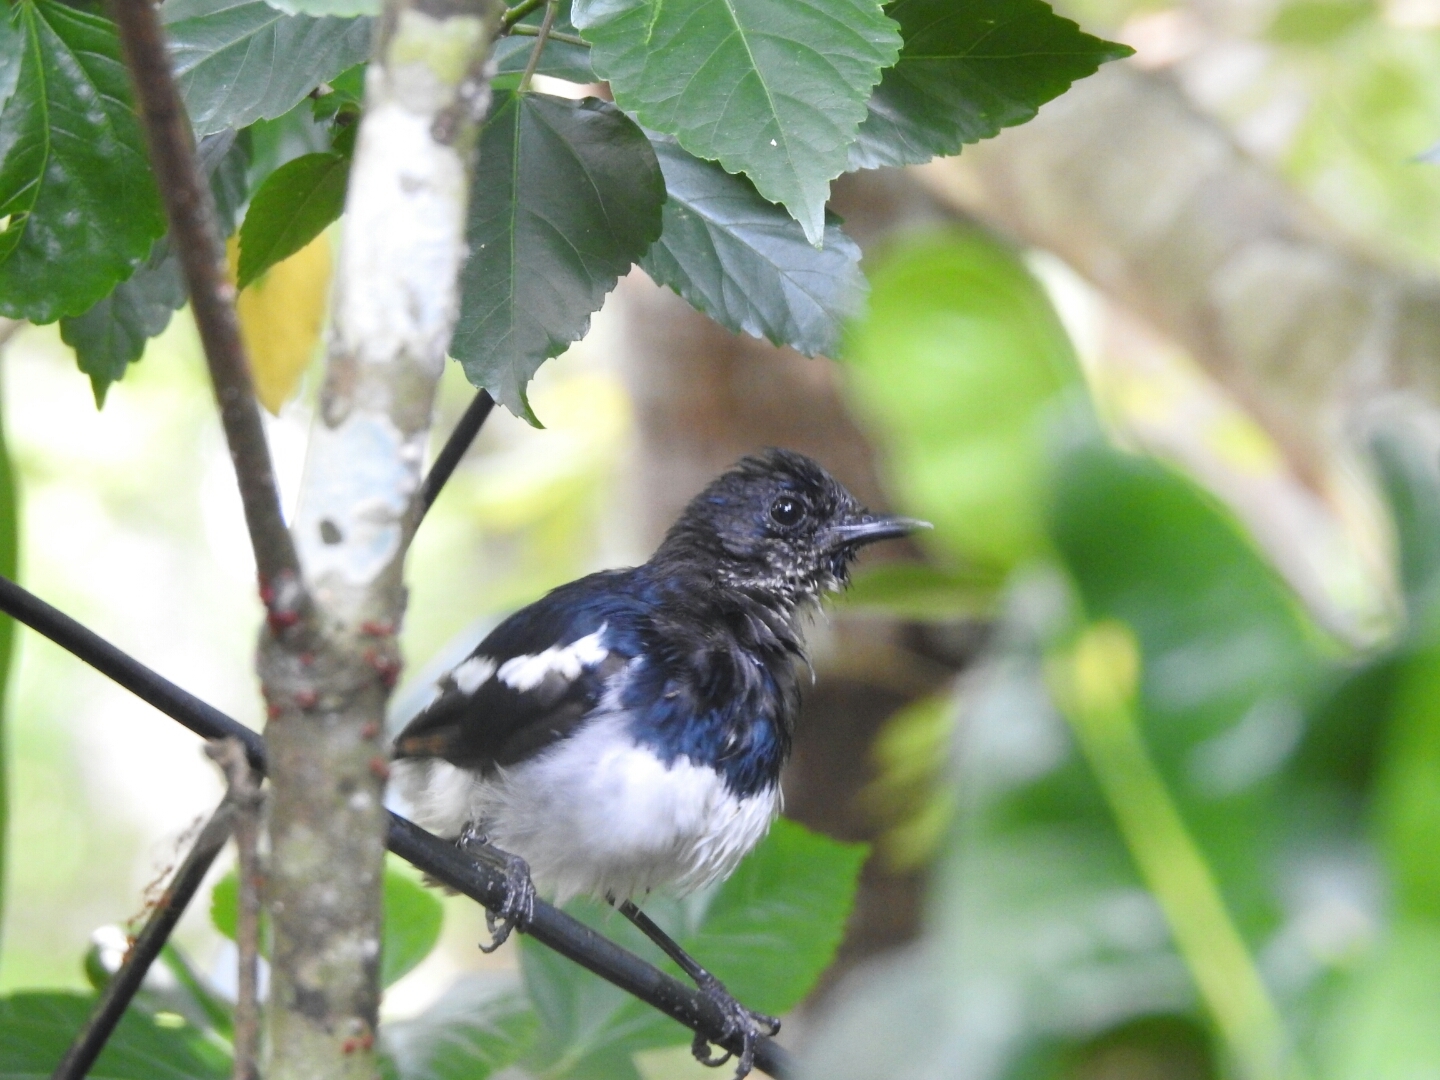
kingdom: Animalia
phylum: Chordata
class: Aves
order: Passeriformes
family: Muscicapidae
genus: Copsychus
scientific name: Copsychus saularis
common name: Oriental magpie-robin
